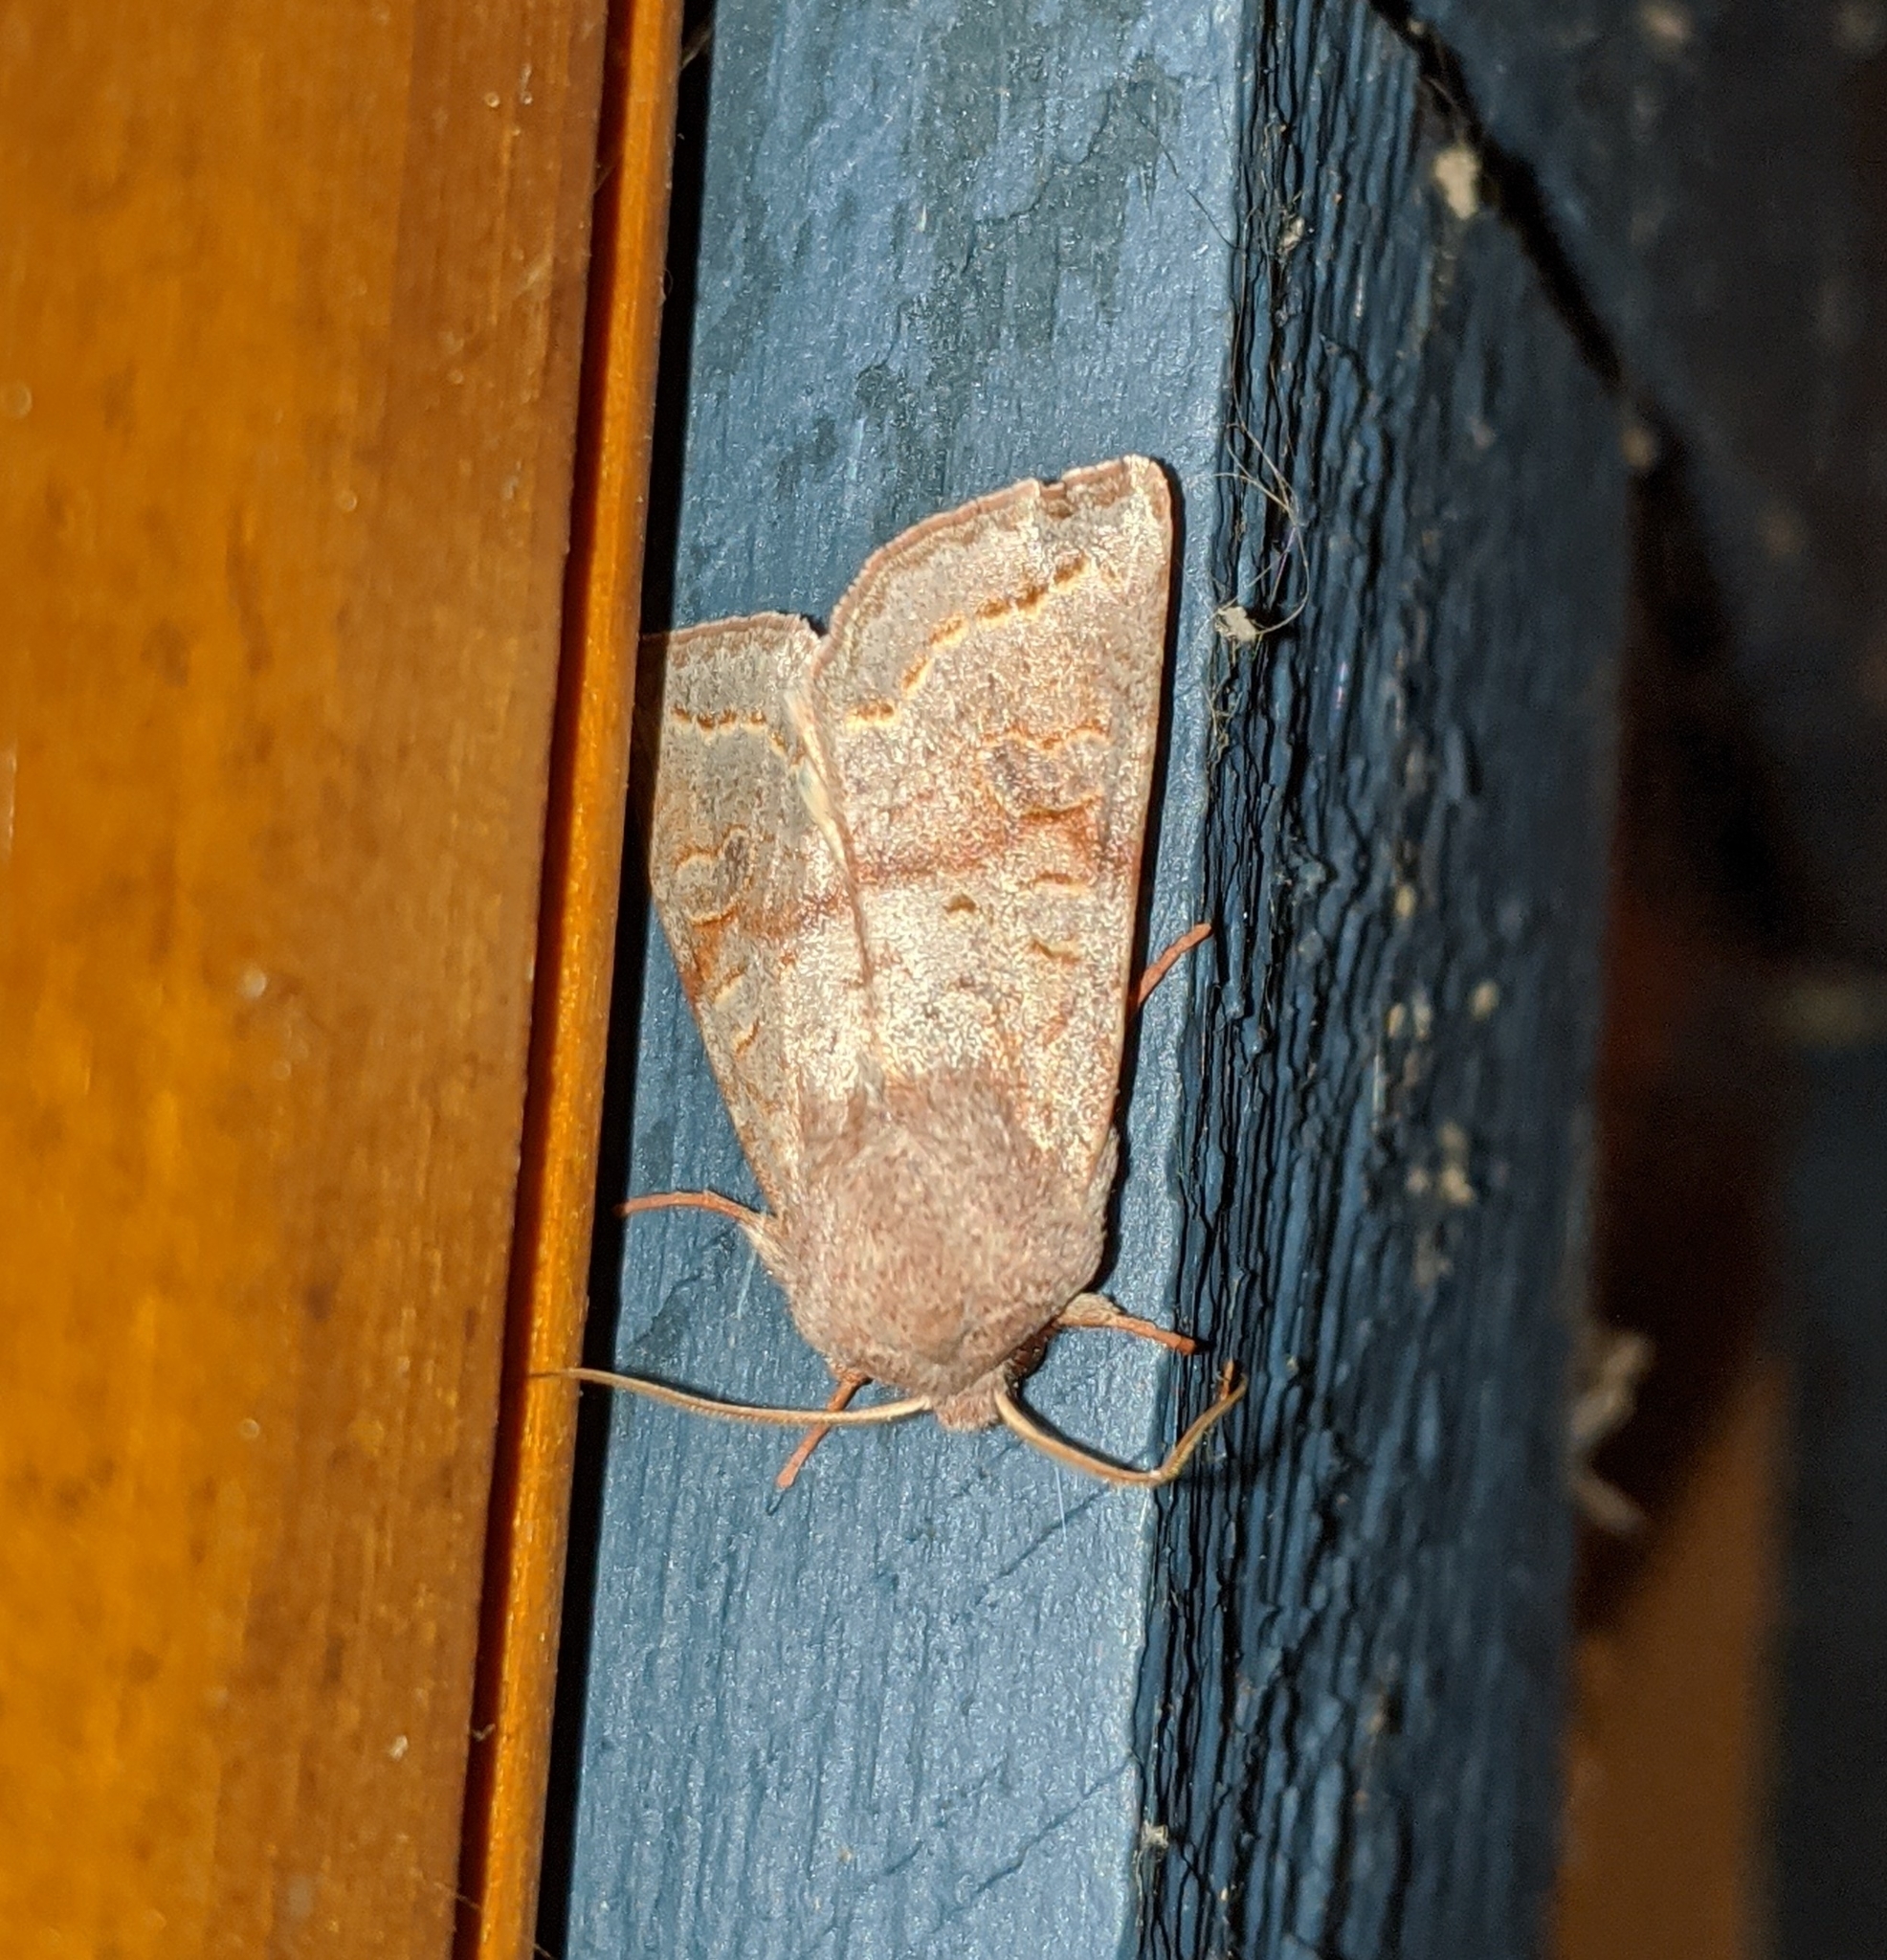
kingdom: Animalia
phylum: Arthropoda
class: Insecta
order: Lepidoptera
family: Noctuidae
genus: Orthosia
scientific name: Orthosia revicta
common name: Rusty whitesided caterpillar
